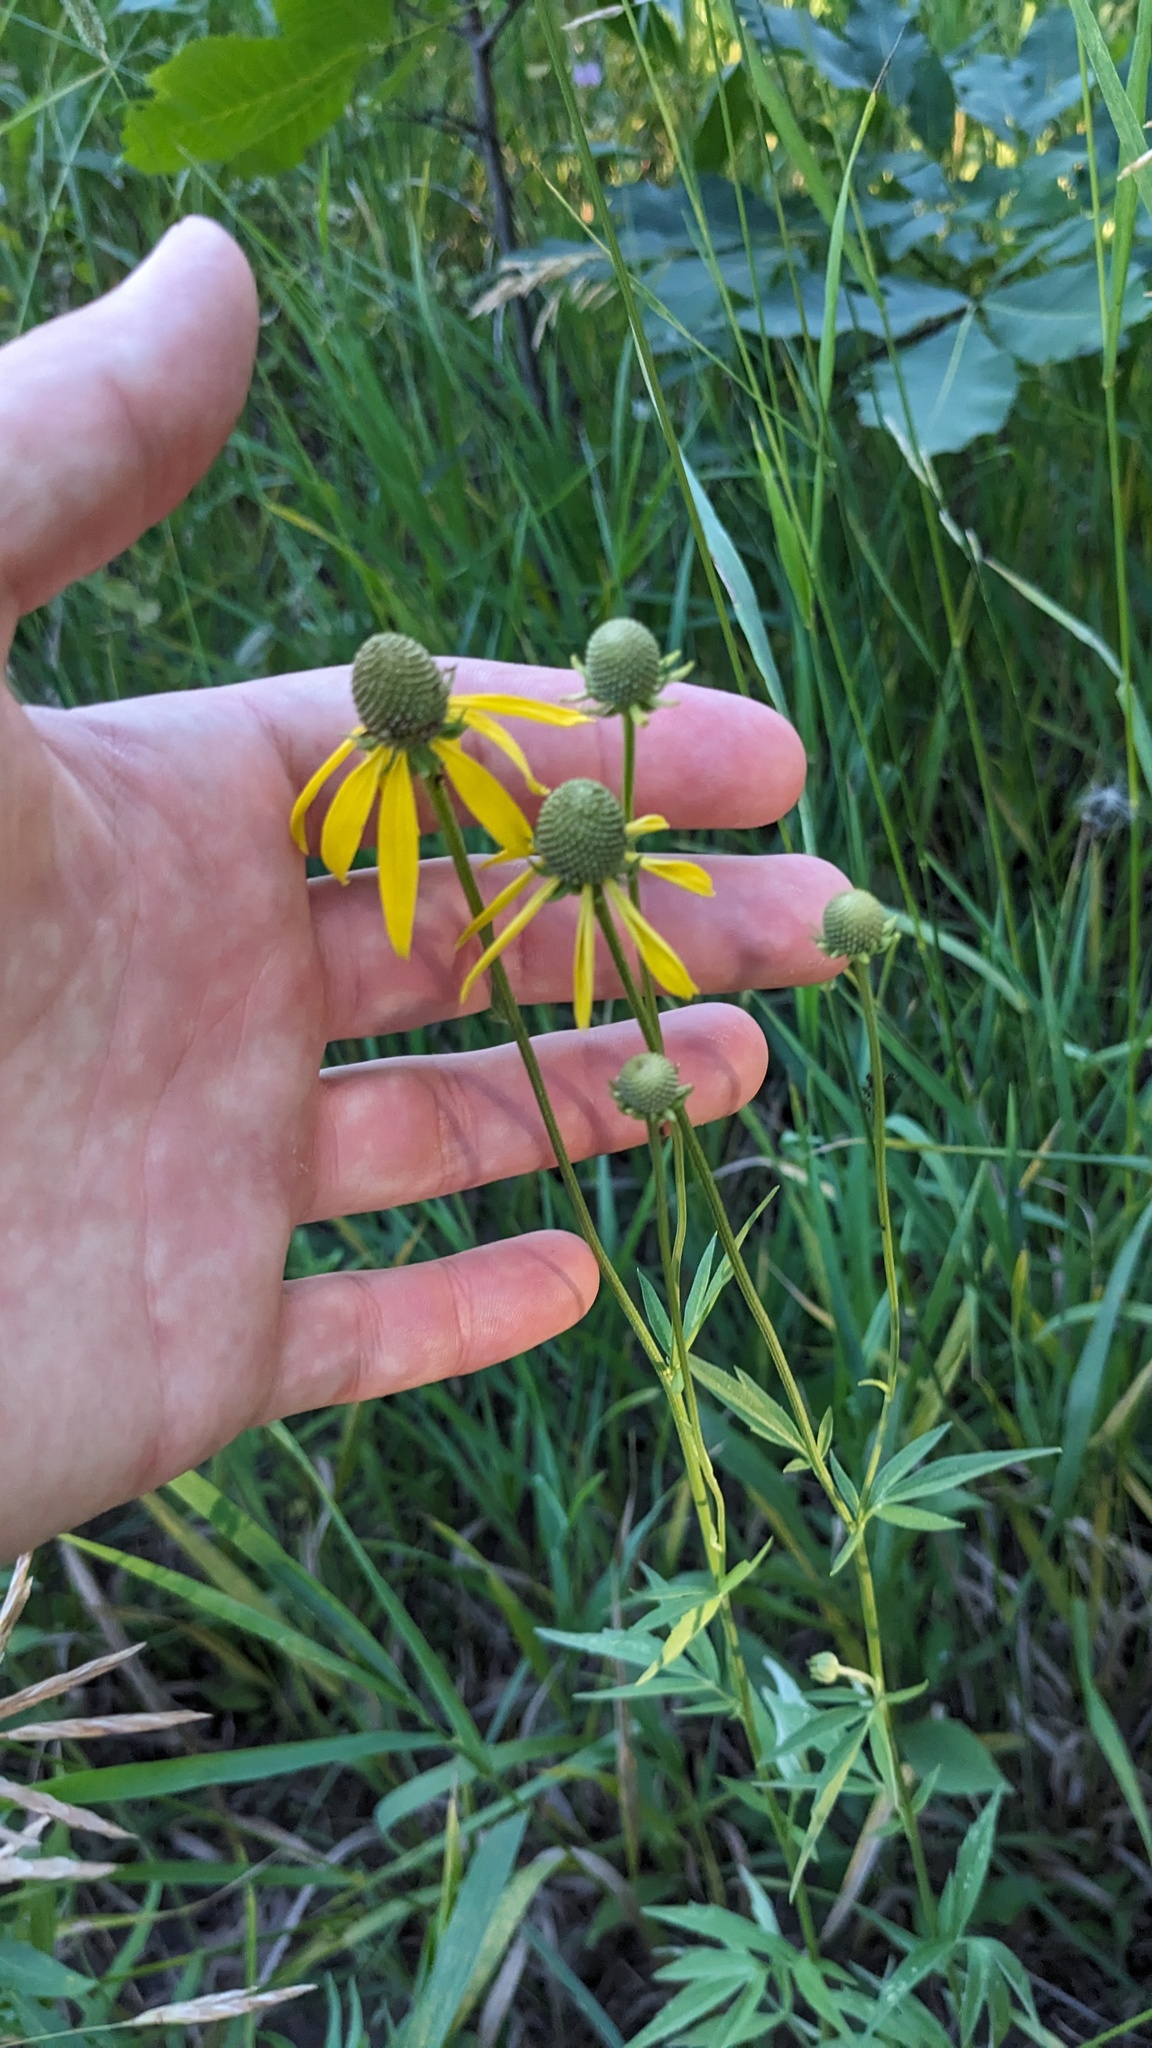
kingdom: Plantae
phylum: Tracheophyta
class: Magnoliopsida
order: Asterales
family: Asteraceae
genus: Ratibida
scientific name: Ratibida pinnata
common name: Drooping prairie-coneflower
